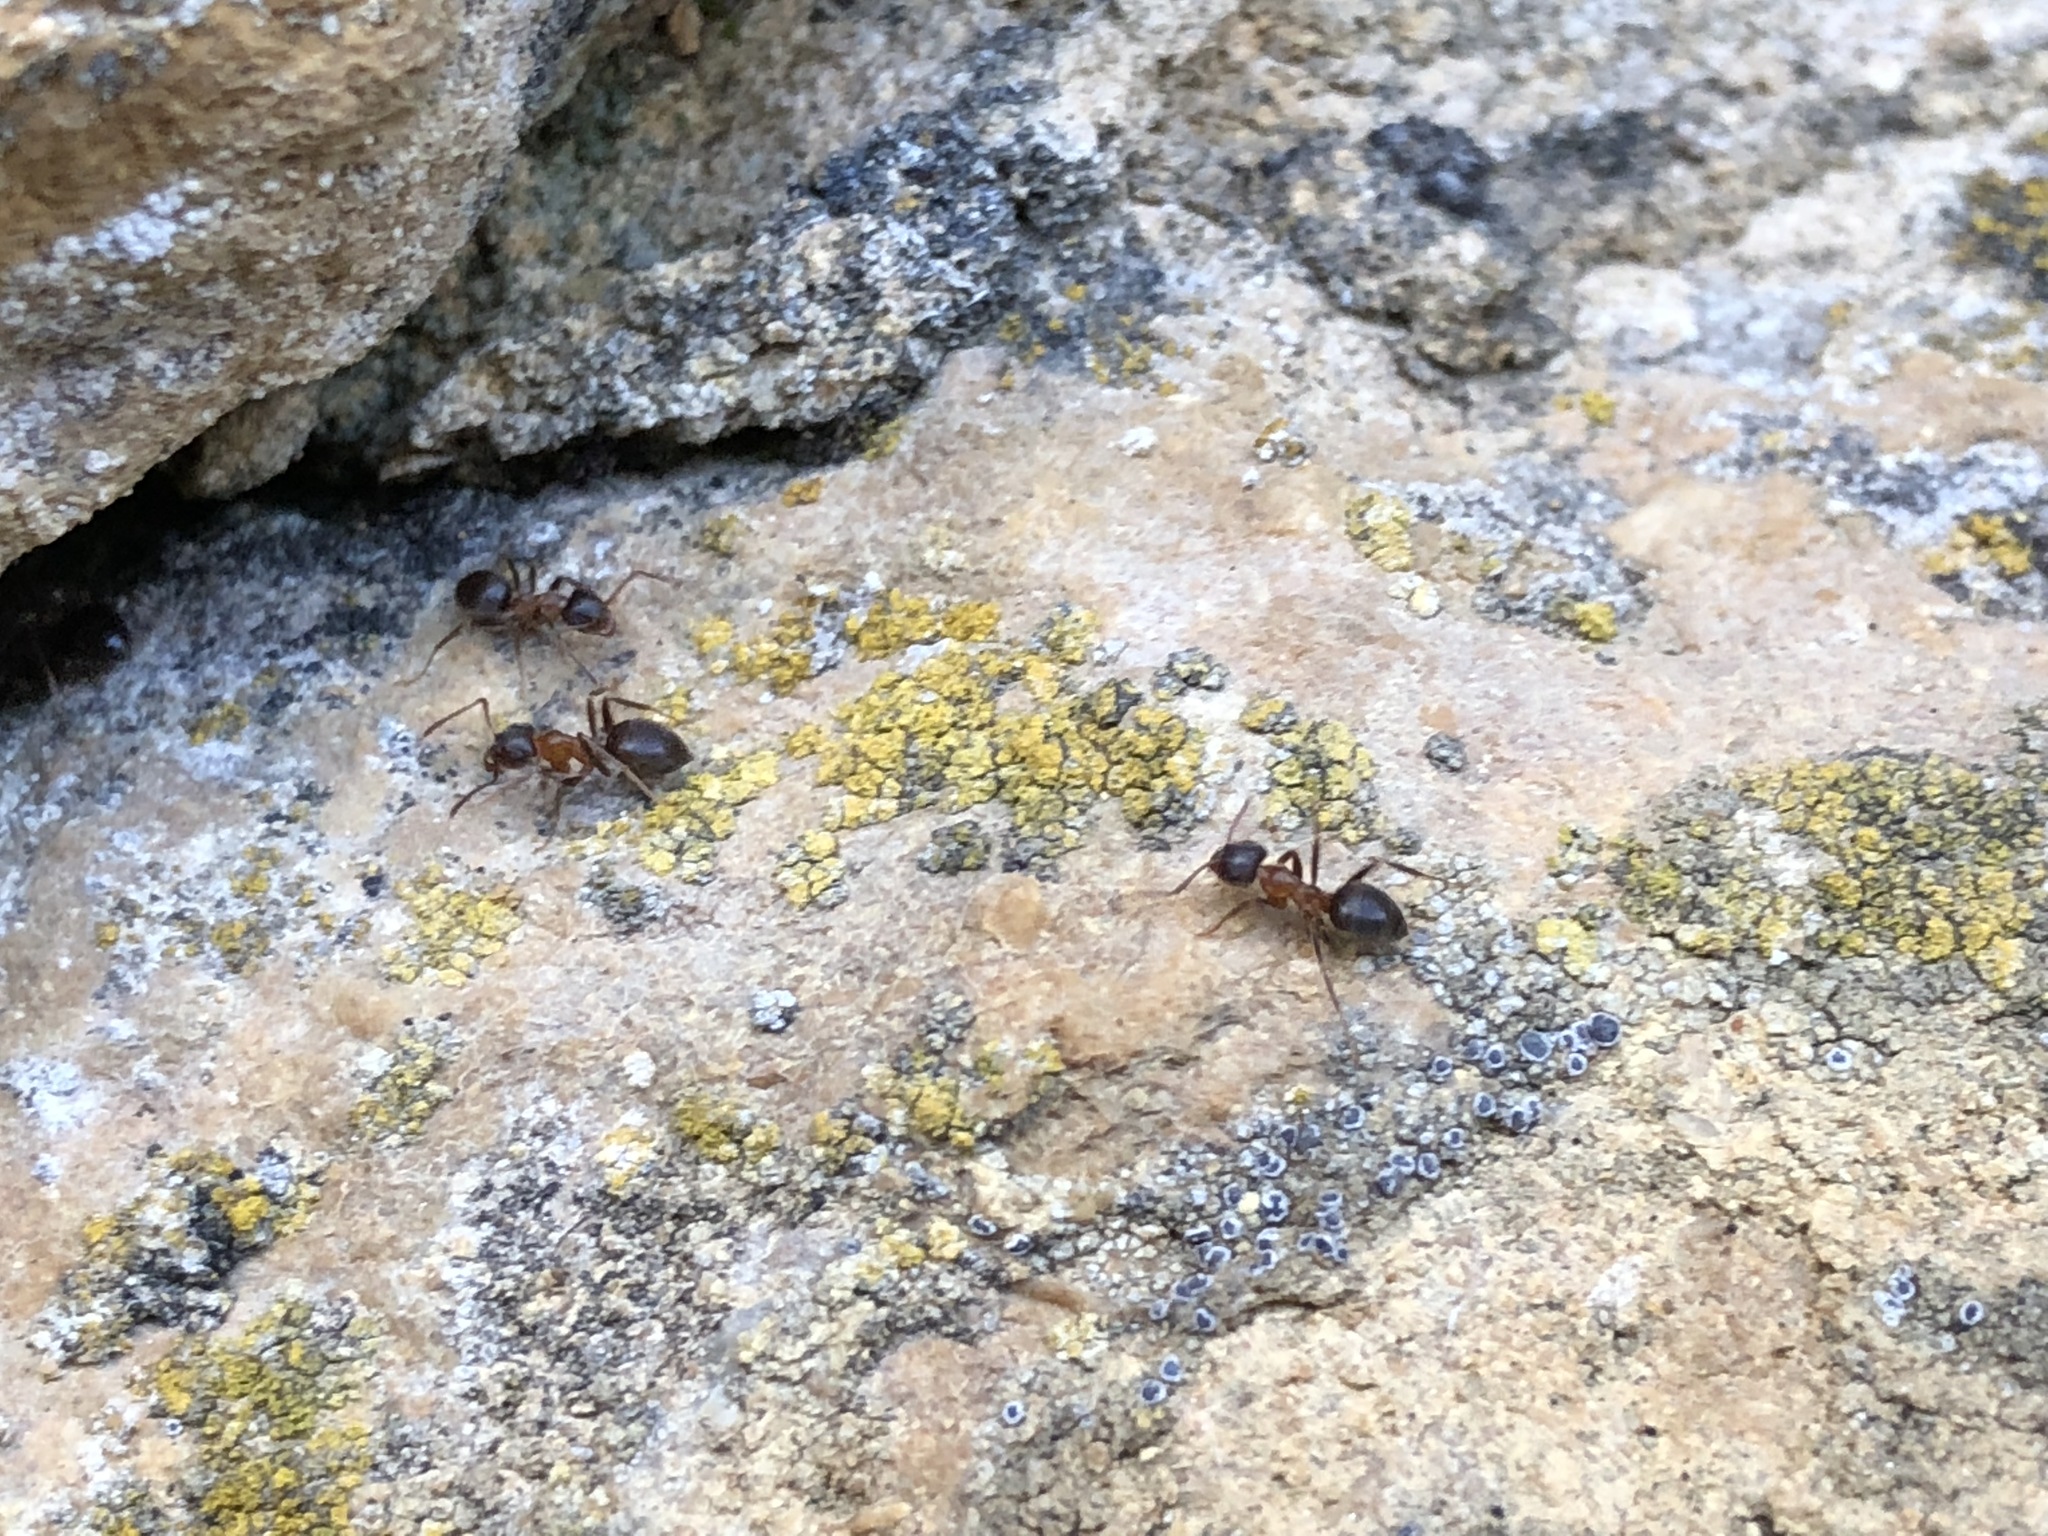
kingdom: Animalia
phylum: Arthropoda
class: Insecta
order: Hymenoptera
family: Formicidae
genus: Lasius
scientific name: Lasius emarginatus
